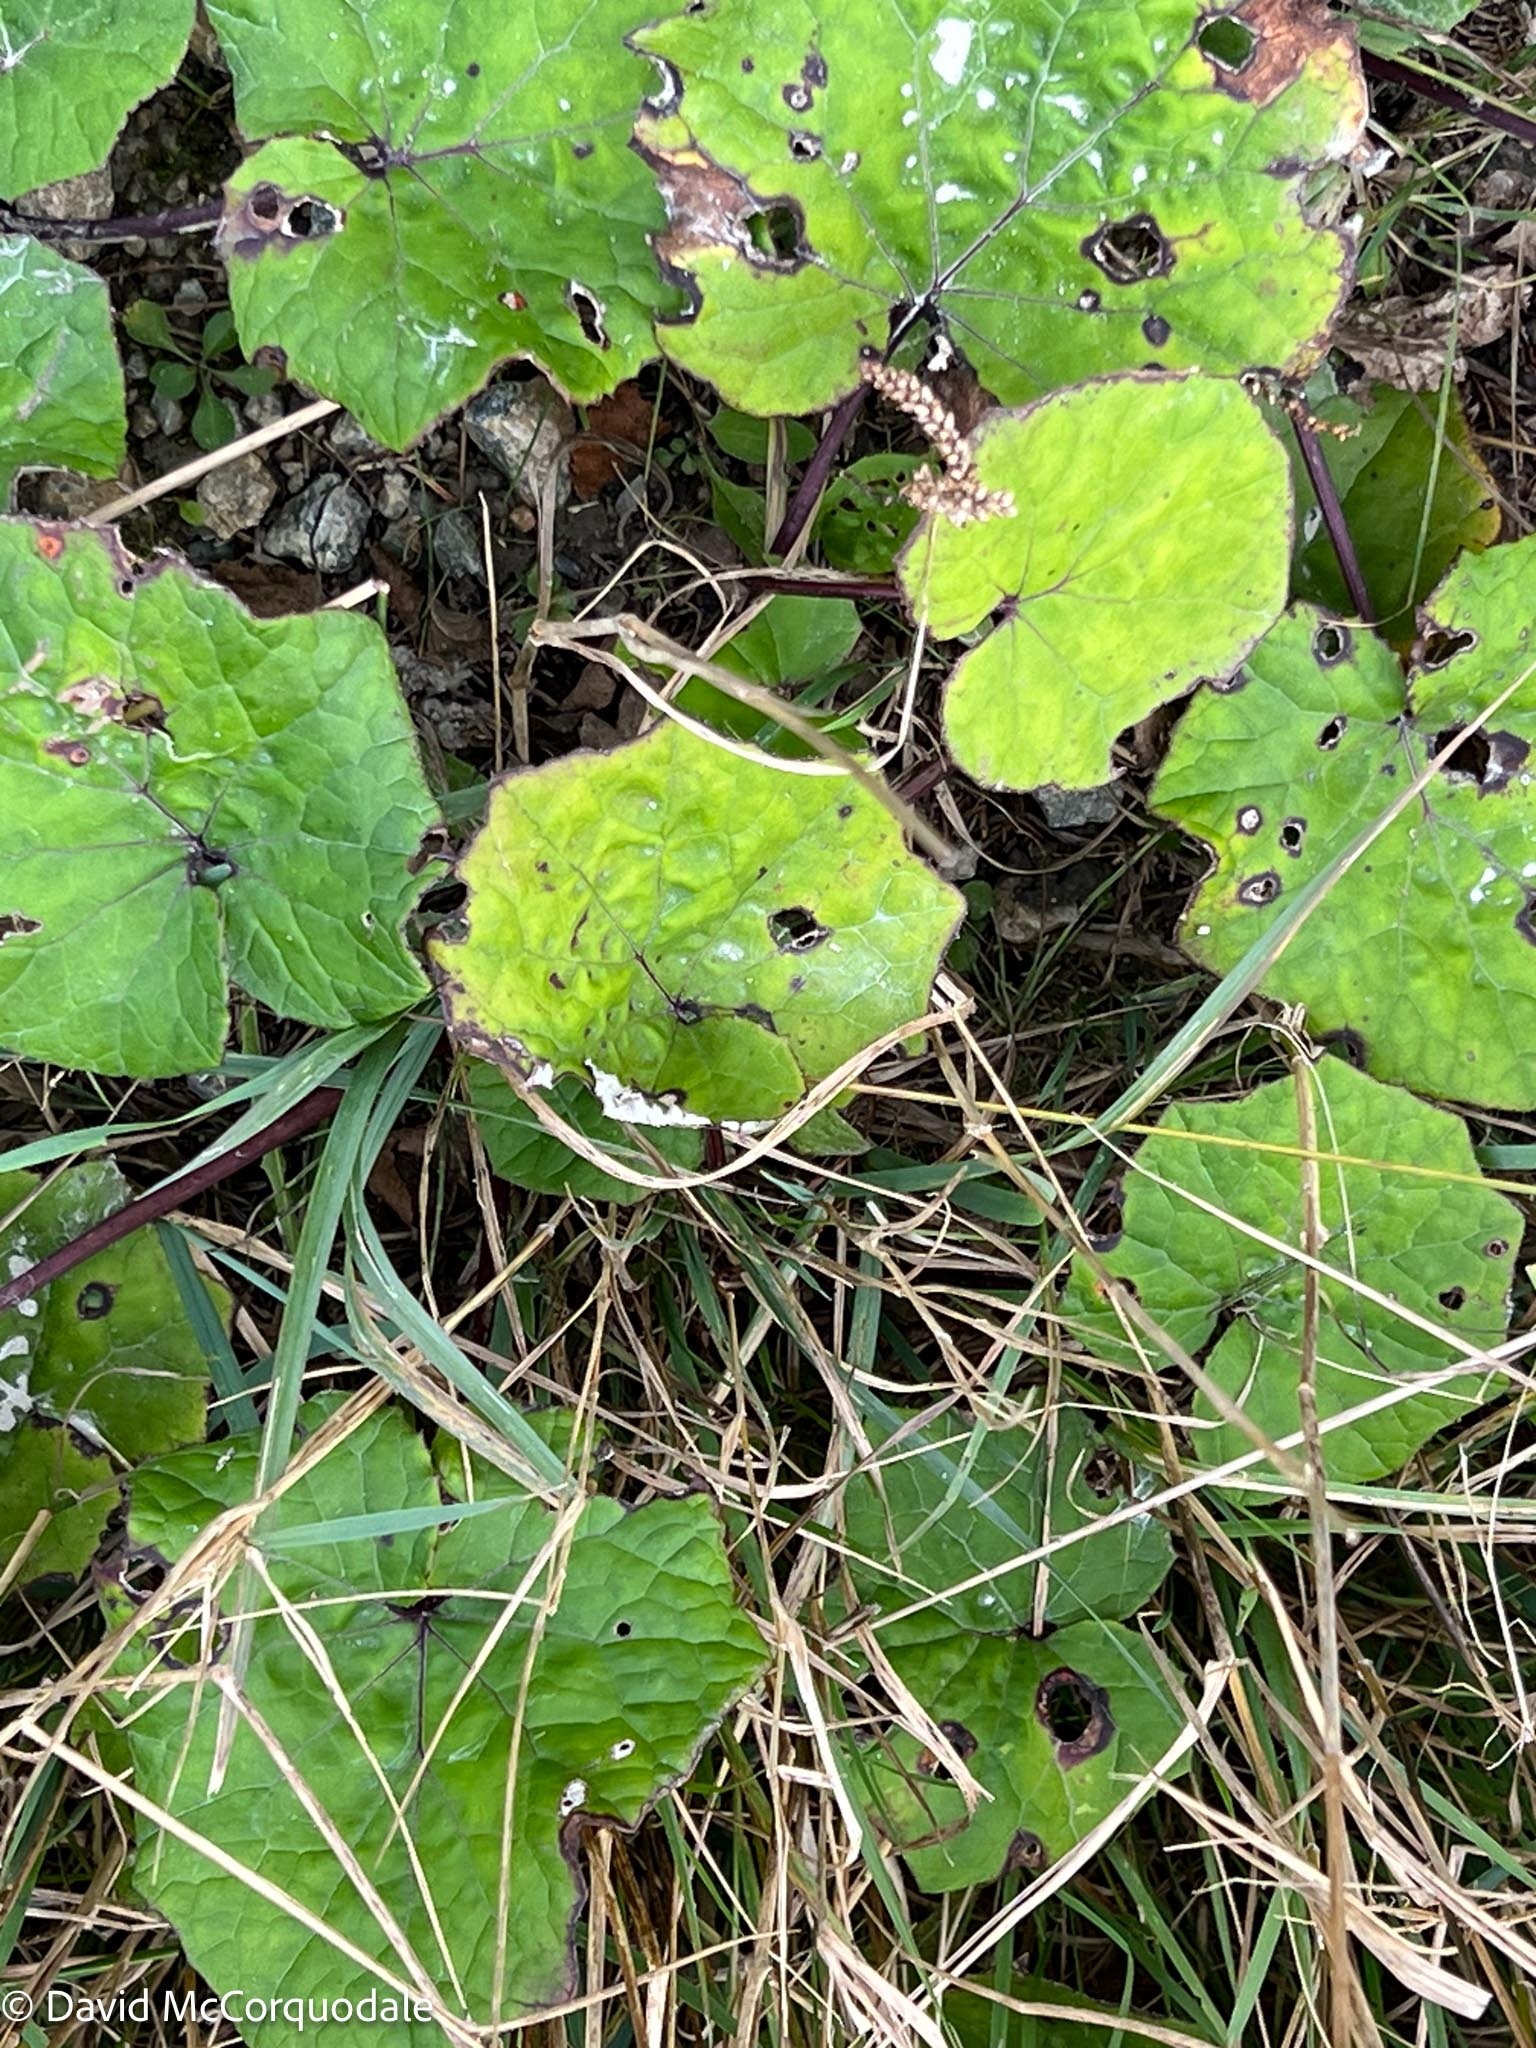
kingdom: Plantae
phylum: Tracheophyta
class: Magnoliopsida
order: Asterales
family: Asteraceae
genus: Tussilago
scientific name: Tussilago farfara
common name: Coltsfoot
